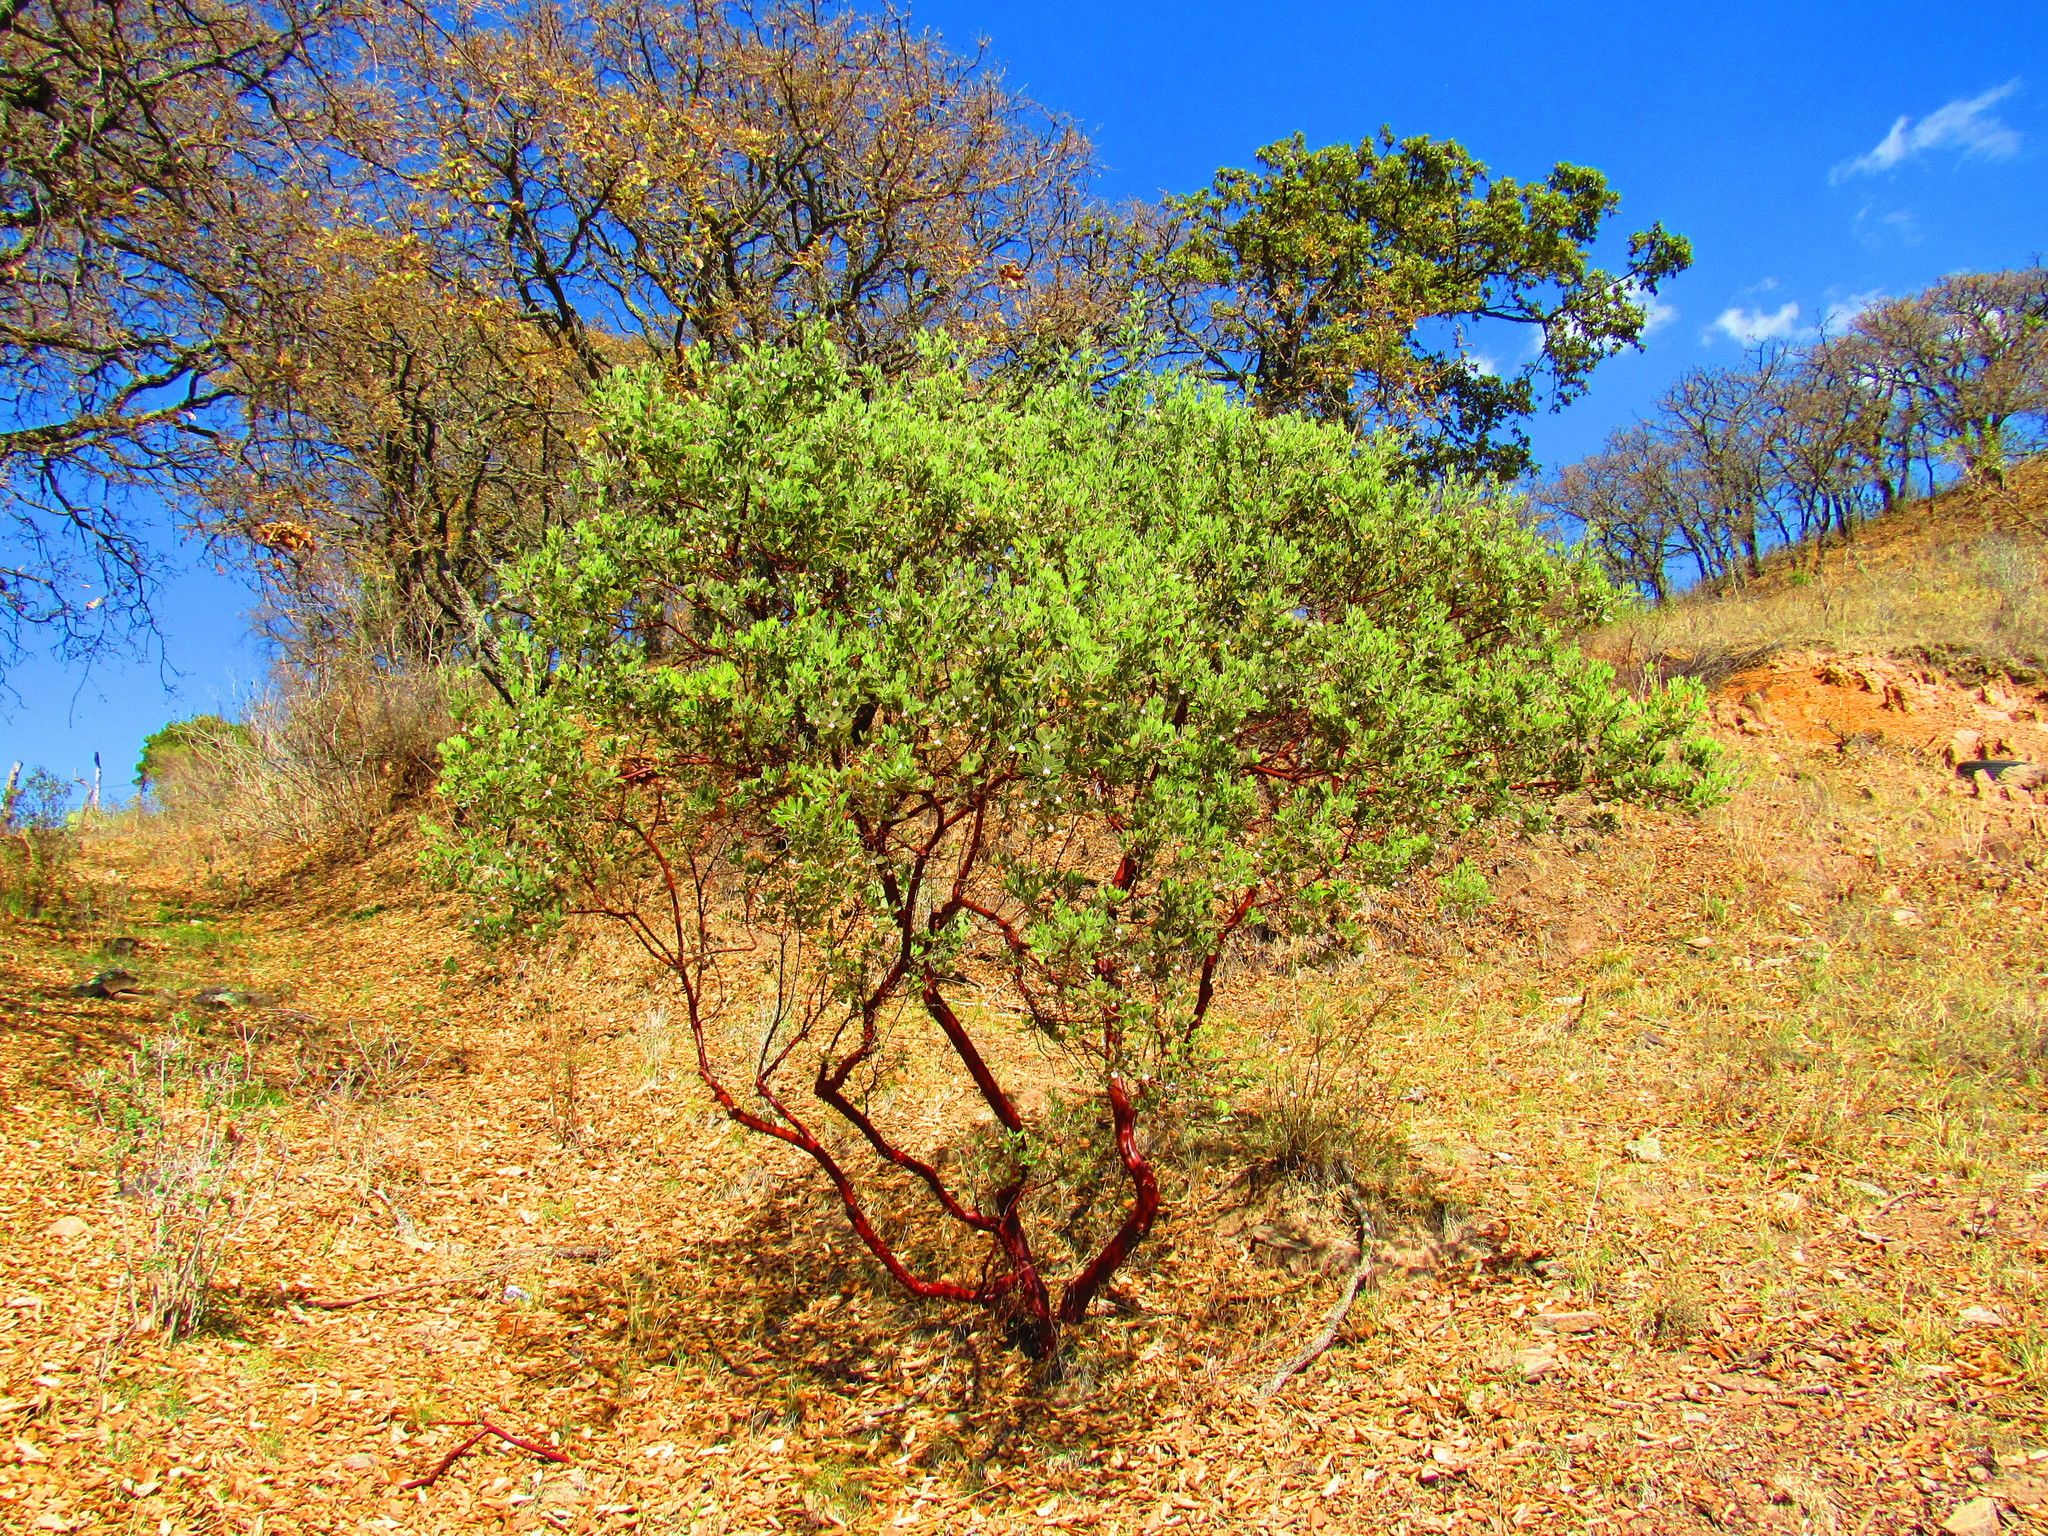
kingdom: Plantae
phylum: Tracheophyta
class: Magnoliopsida
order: Ericales
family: Ericaceae
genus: Arctostaphylos
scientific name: Arctostaphylos pungens
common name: Mexican manzanita
